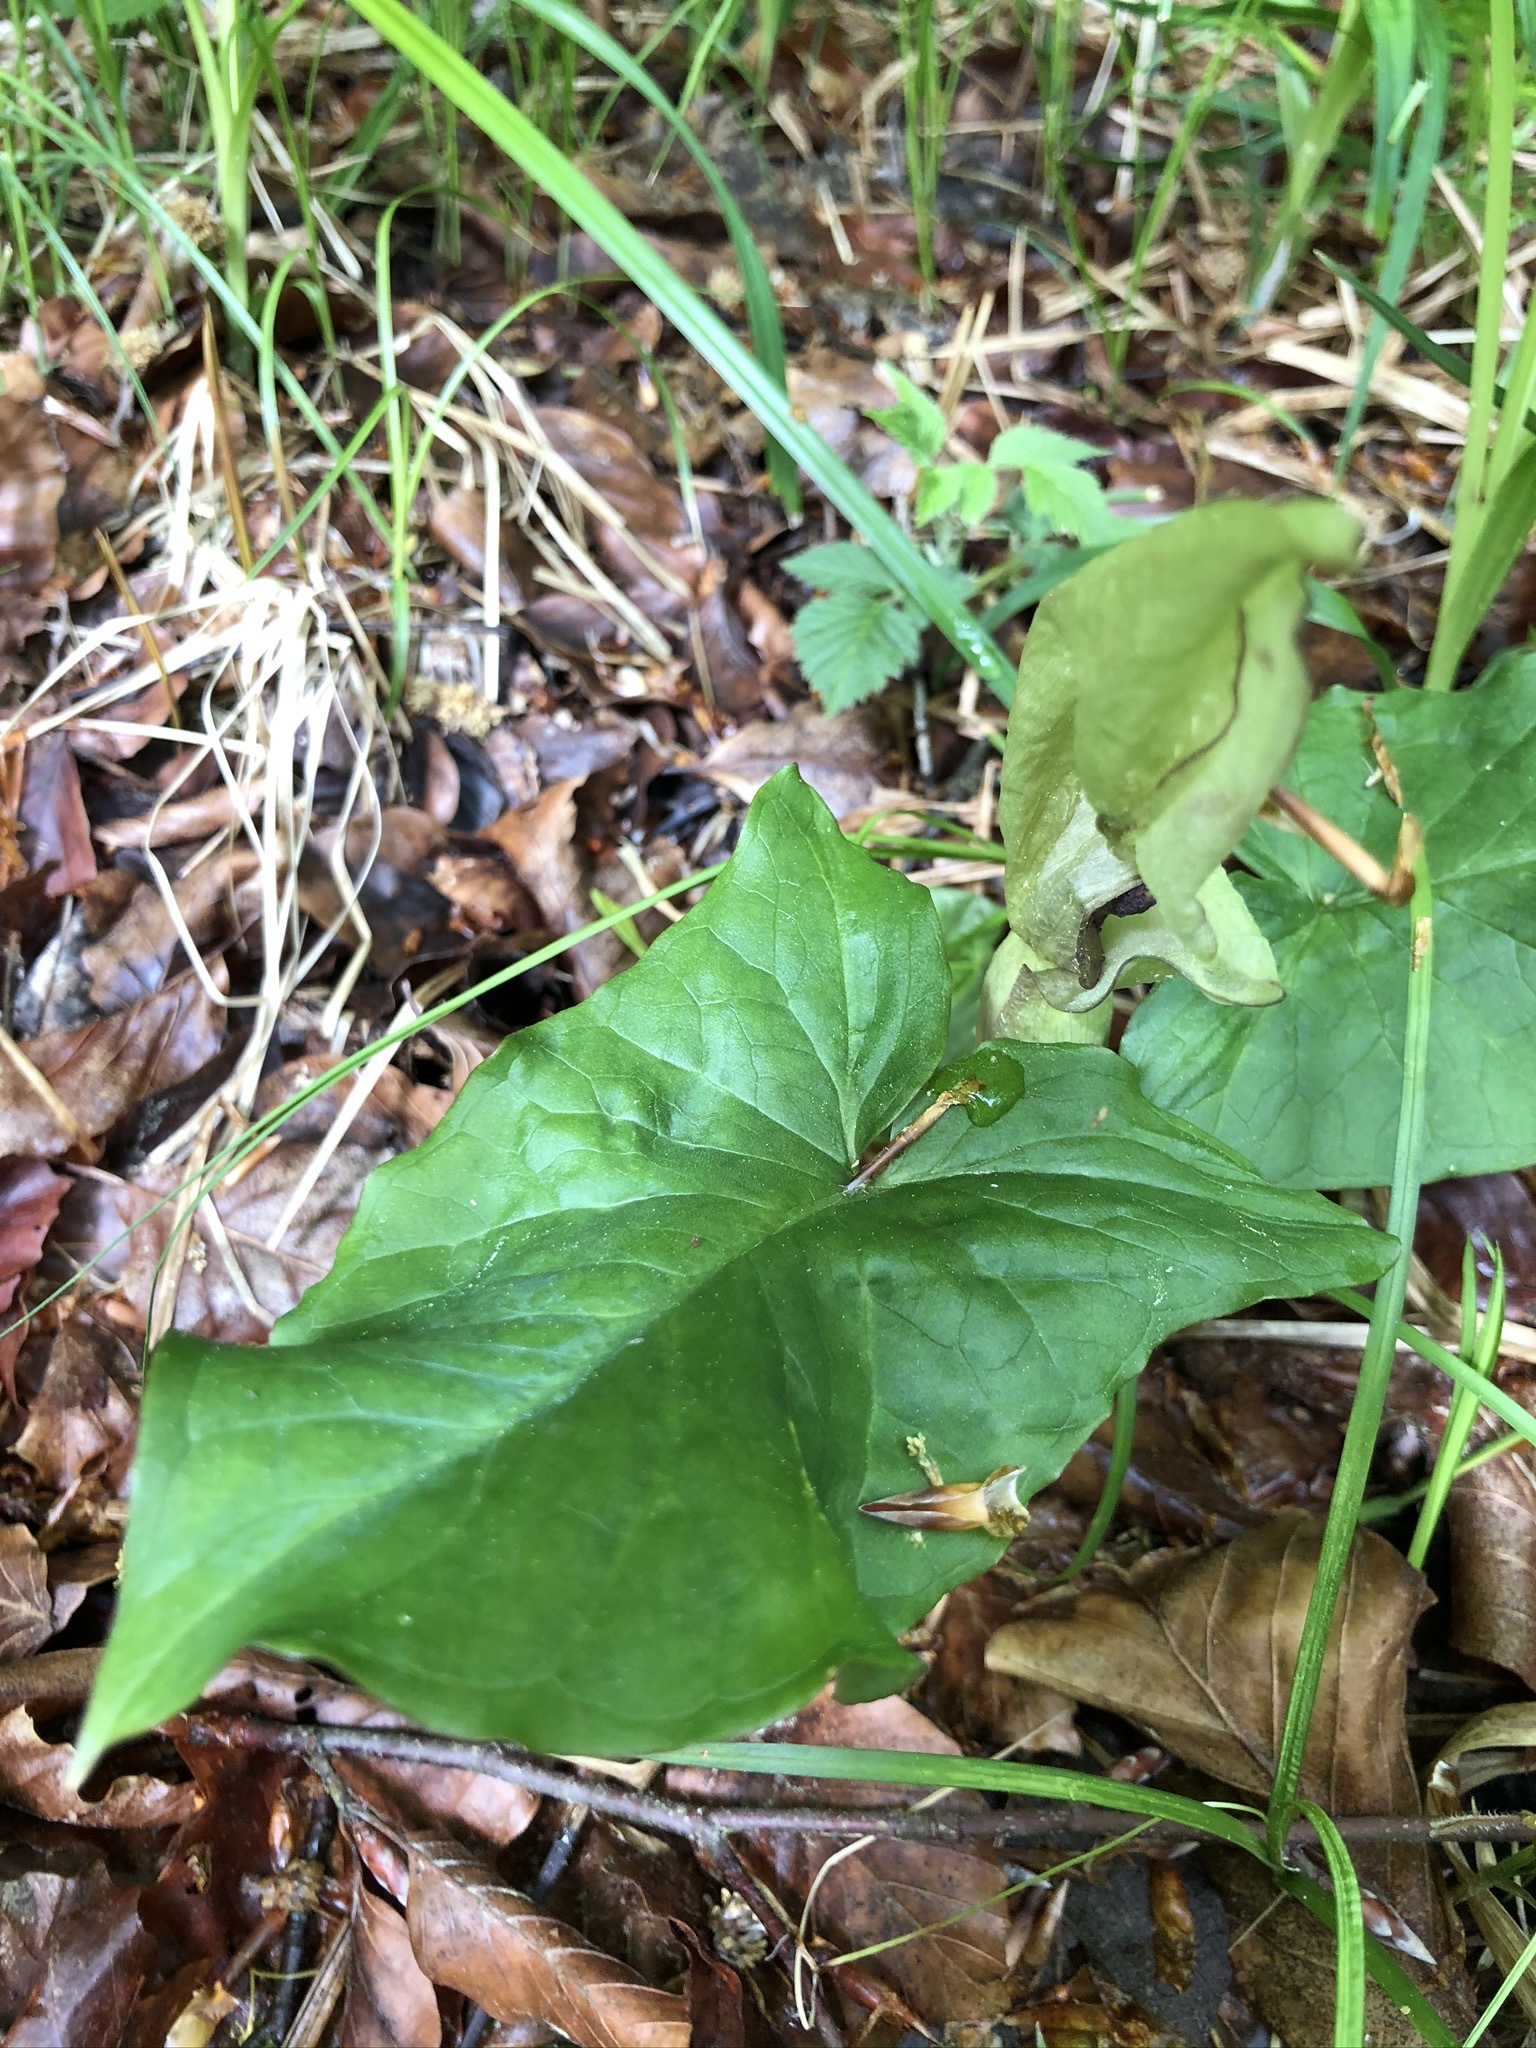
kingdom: Plantae
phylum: Tracheophyta
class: Liliopsida
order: Alismatales
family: Araceae
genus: Arum
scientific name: Arum maculatum
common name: Lords-and-ladies
